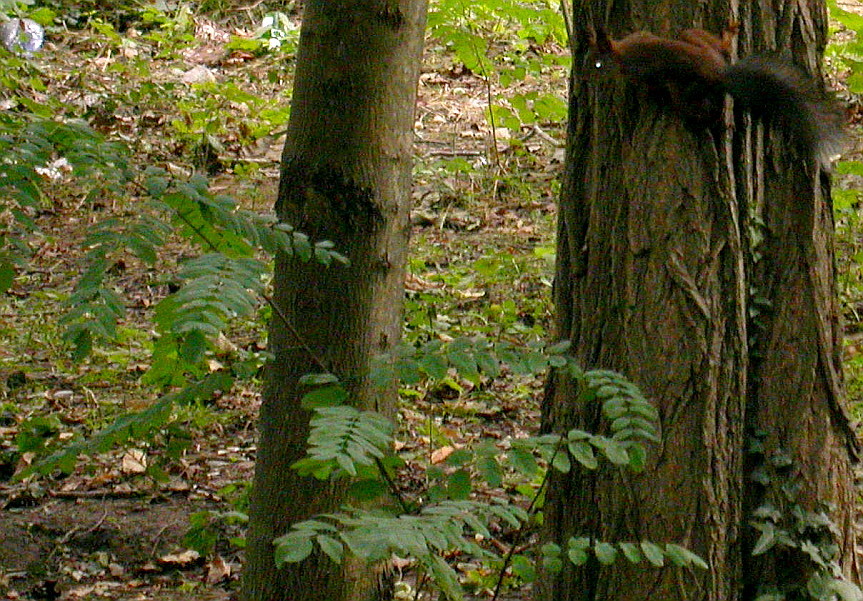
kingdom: Plantae
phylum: Tracheophyta
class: Magnoliopsida
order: Fabales
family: Fabaceae
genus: Robinia
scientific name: Robinia pseudoacacia
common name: Black locust
